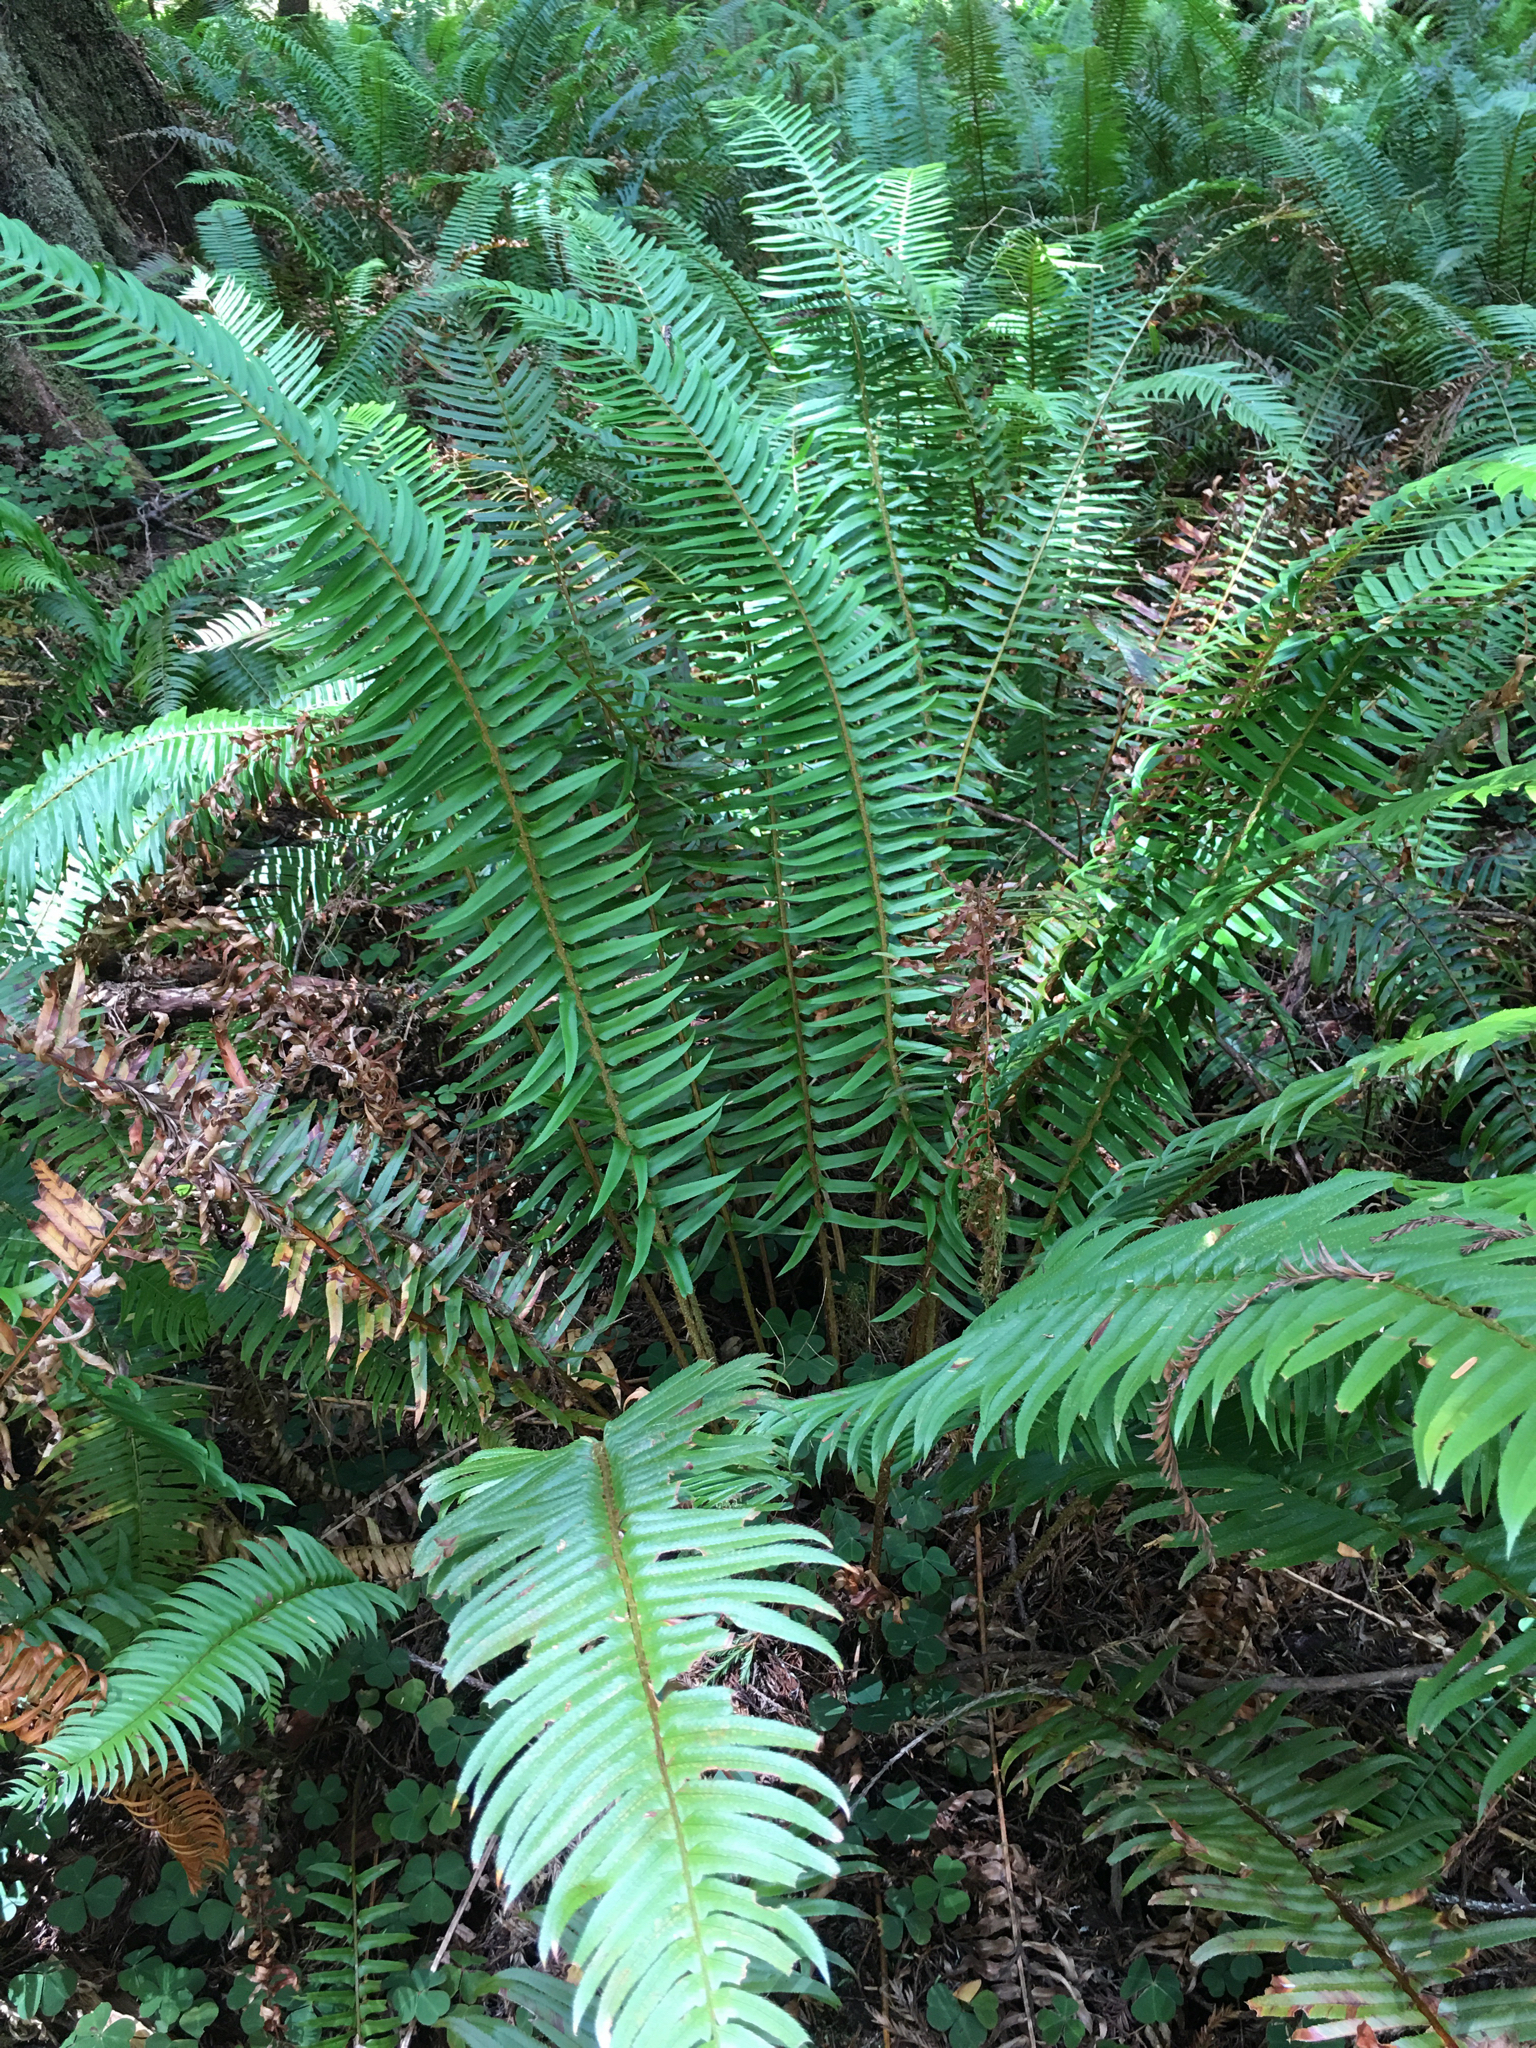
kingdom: Plantae
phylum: Tracheophyta
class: Polypodiopsida
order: Polypodiales
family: Dryopteridaceae
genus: Polystichum
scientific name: Polystichum munitum
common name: Western sword-fern
